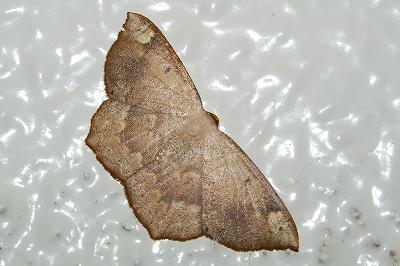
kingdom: Animalia
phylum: Arthropoda
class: Insecta
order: Lepidoptera
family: Geometridae
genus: Peratostega
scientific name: Peratostega deletaria
